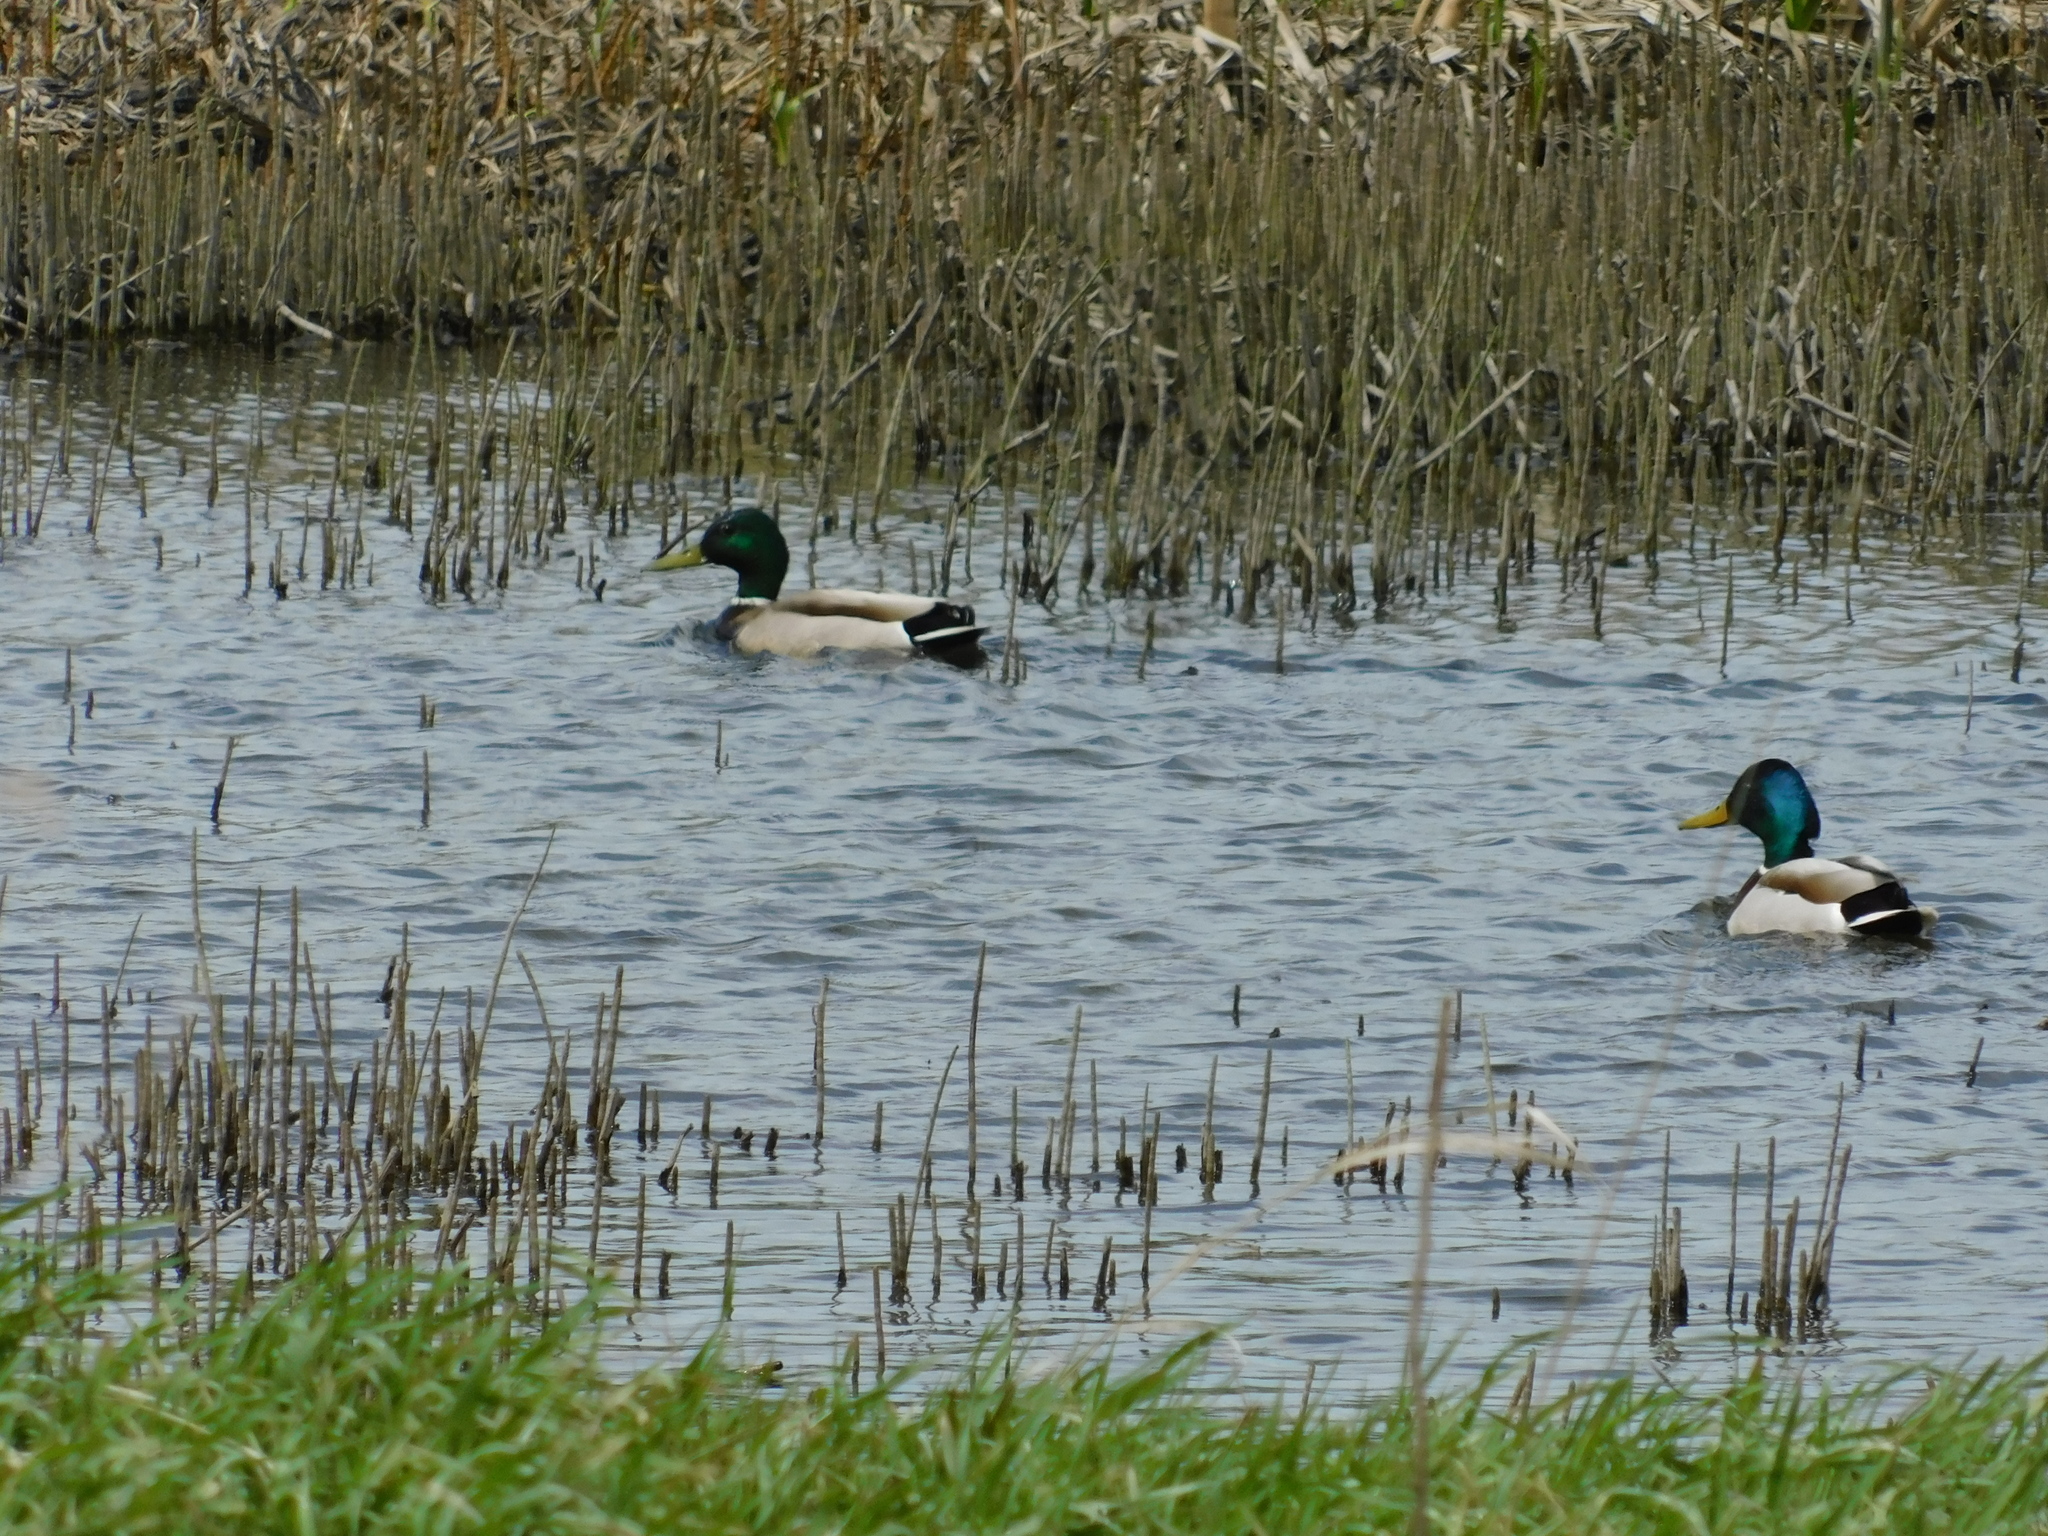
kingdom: Animalia
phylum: Chordata
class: Aves
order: Anseriformes
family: Anatidae
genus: Anas
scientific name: Anas platyrhynchos
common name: Mallard
